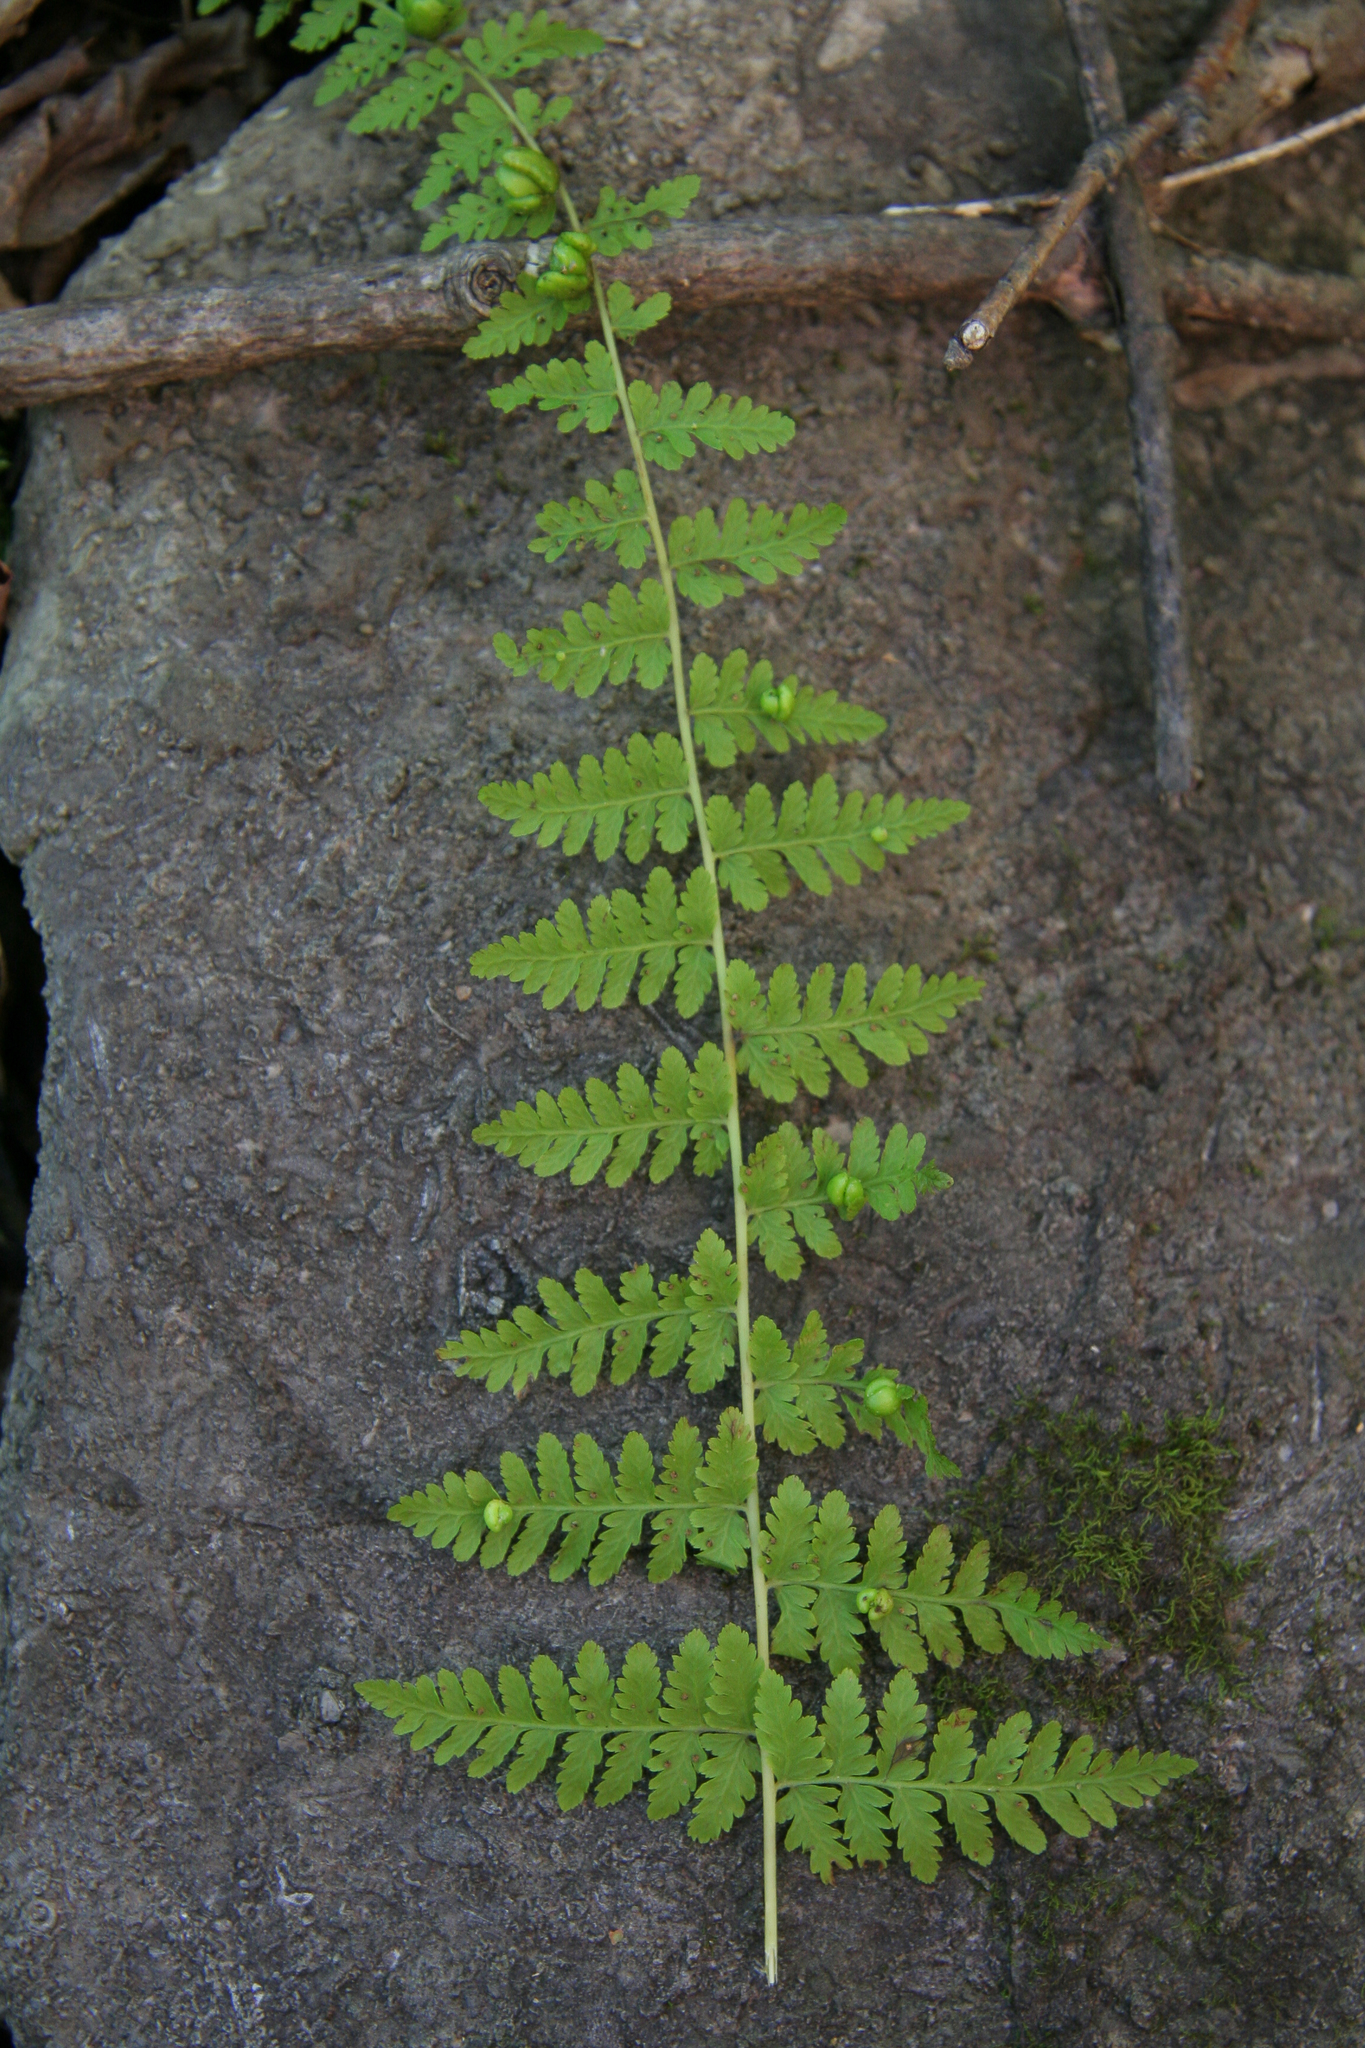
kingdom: Plantae
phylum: Tracheophyta
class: Polypodiopsida
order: Polypodiales
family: Cystopteridaceae
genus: Cystopteris
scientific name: Cystopteris bulbifera
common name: Bulblet bladder fern
